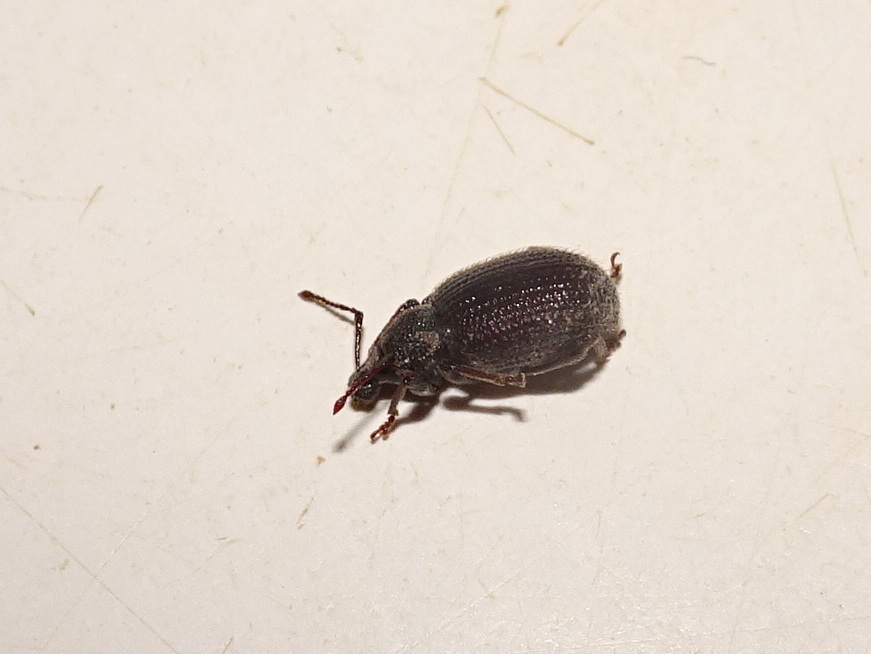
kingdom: Animalia
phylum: Arthropoda
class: Insecta
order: Coleoptera
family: Curculionidae
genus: Otiorhynchus
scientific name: Otiorhynchus rugosostriatus
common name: Weevil
